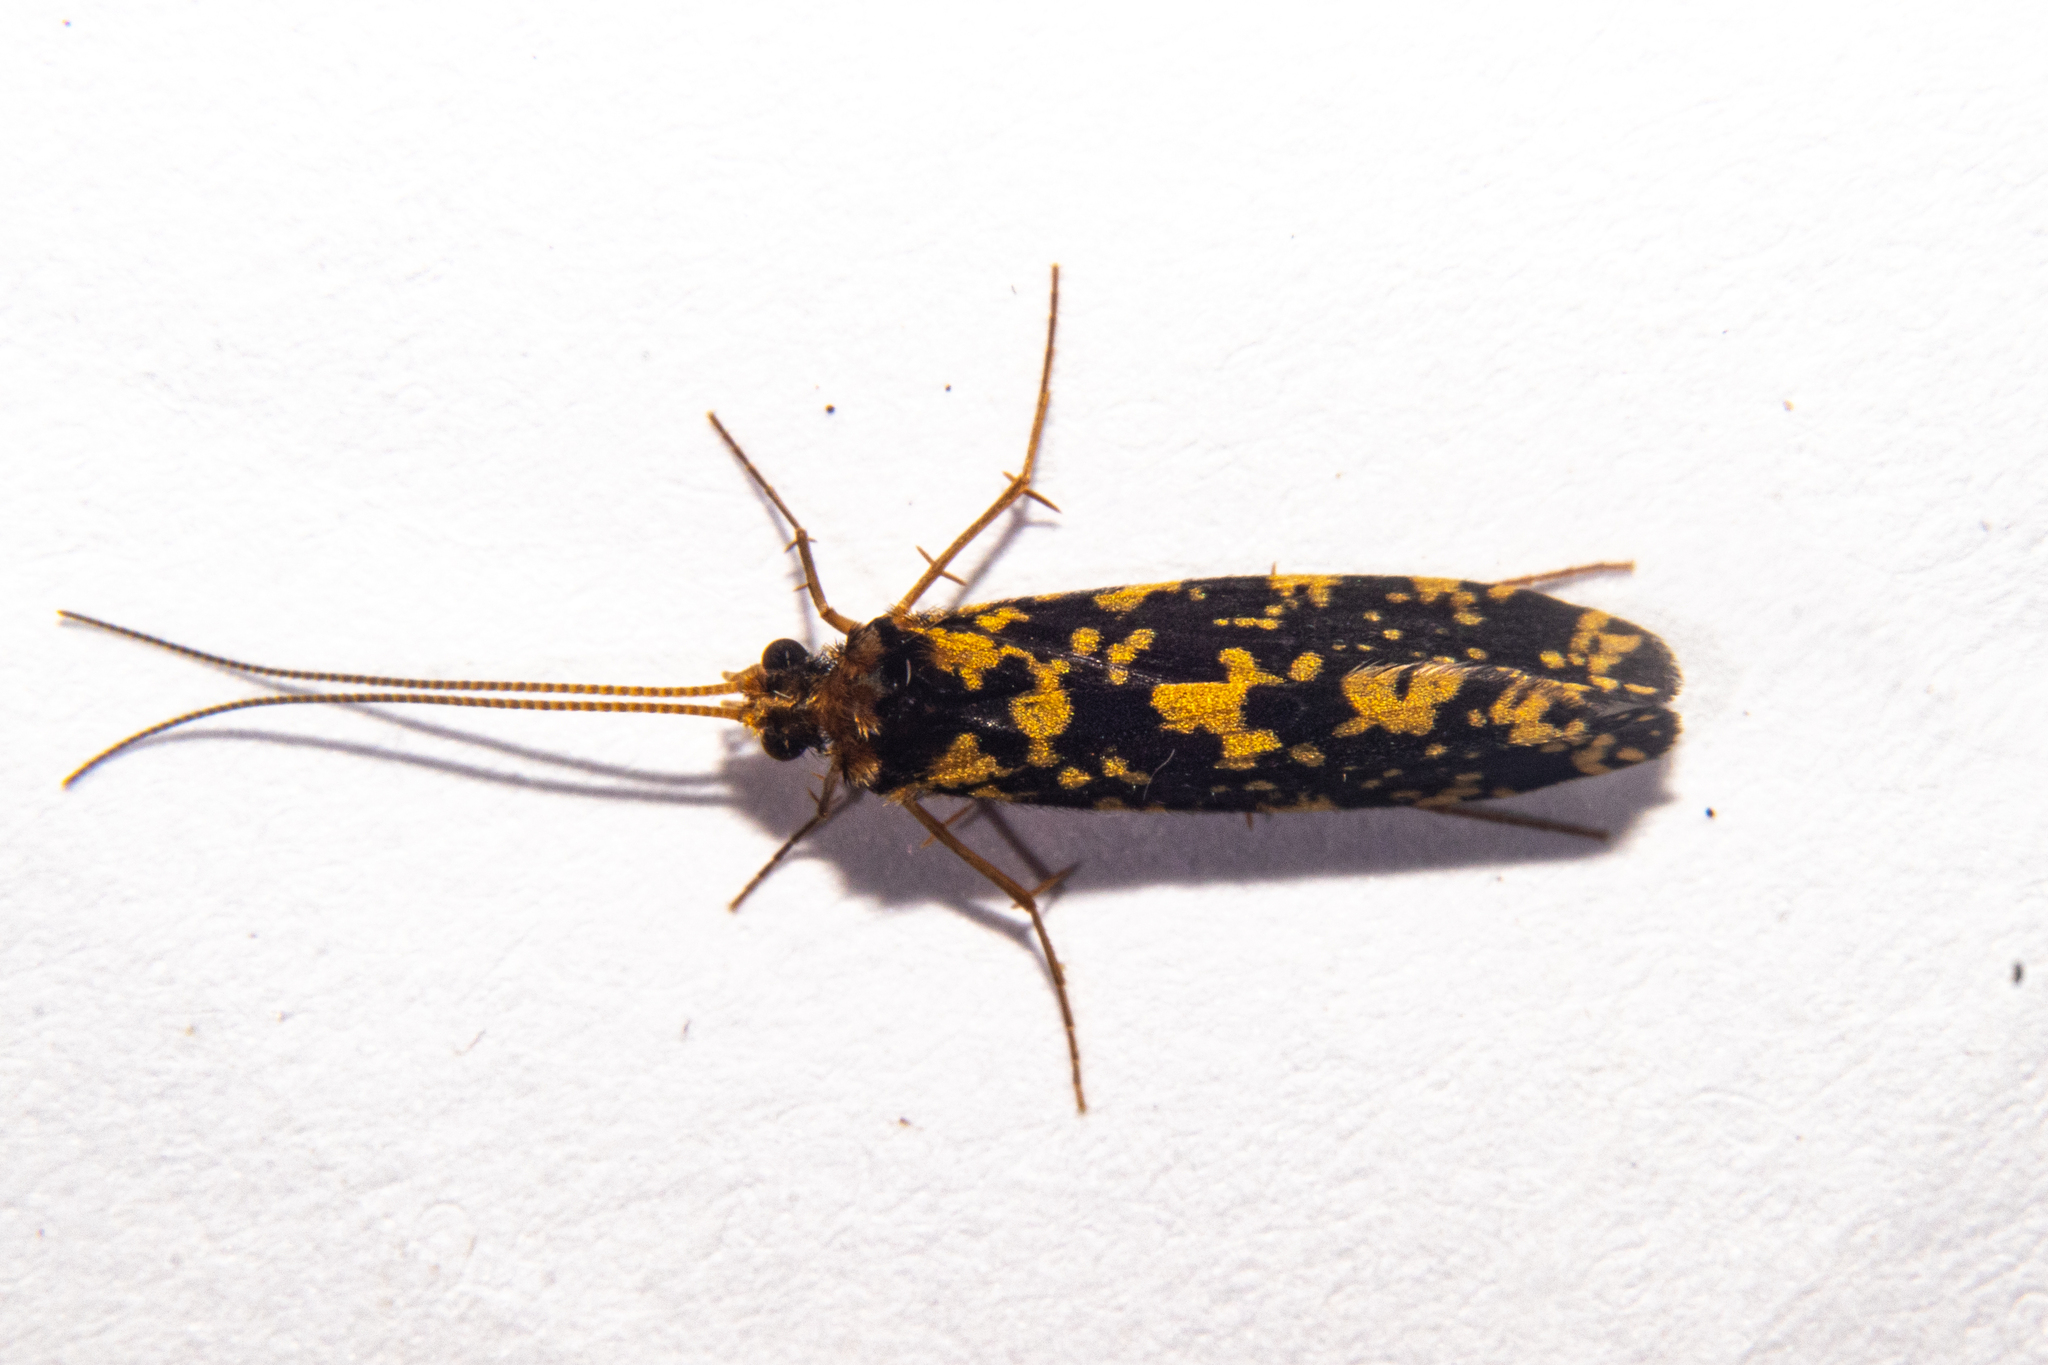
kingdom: Animalia
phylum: Arthropoda
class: Insecta
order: Trichoptera
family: Polycentropodidae
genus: Plectrocnemia
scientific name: Plectrocnemia tuhuae
